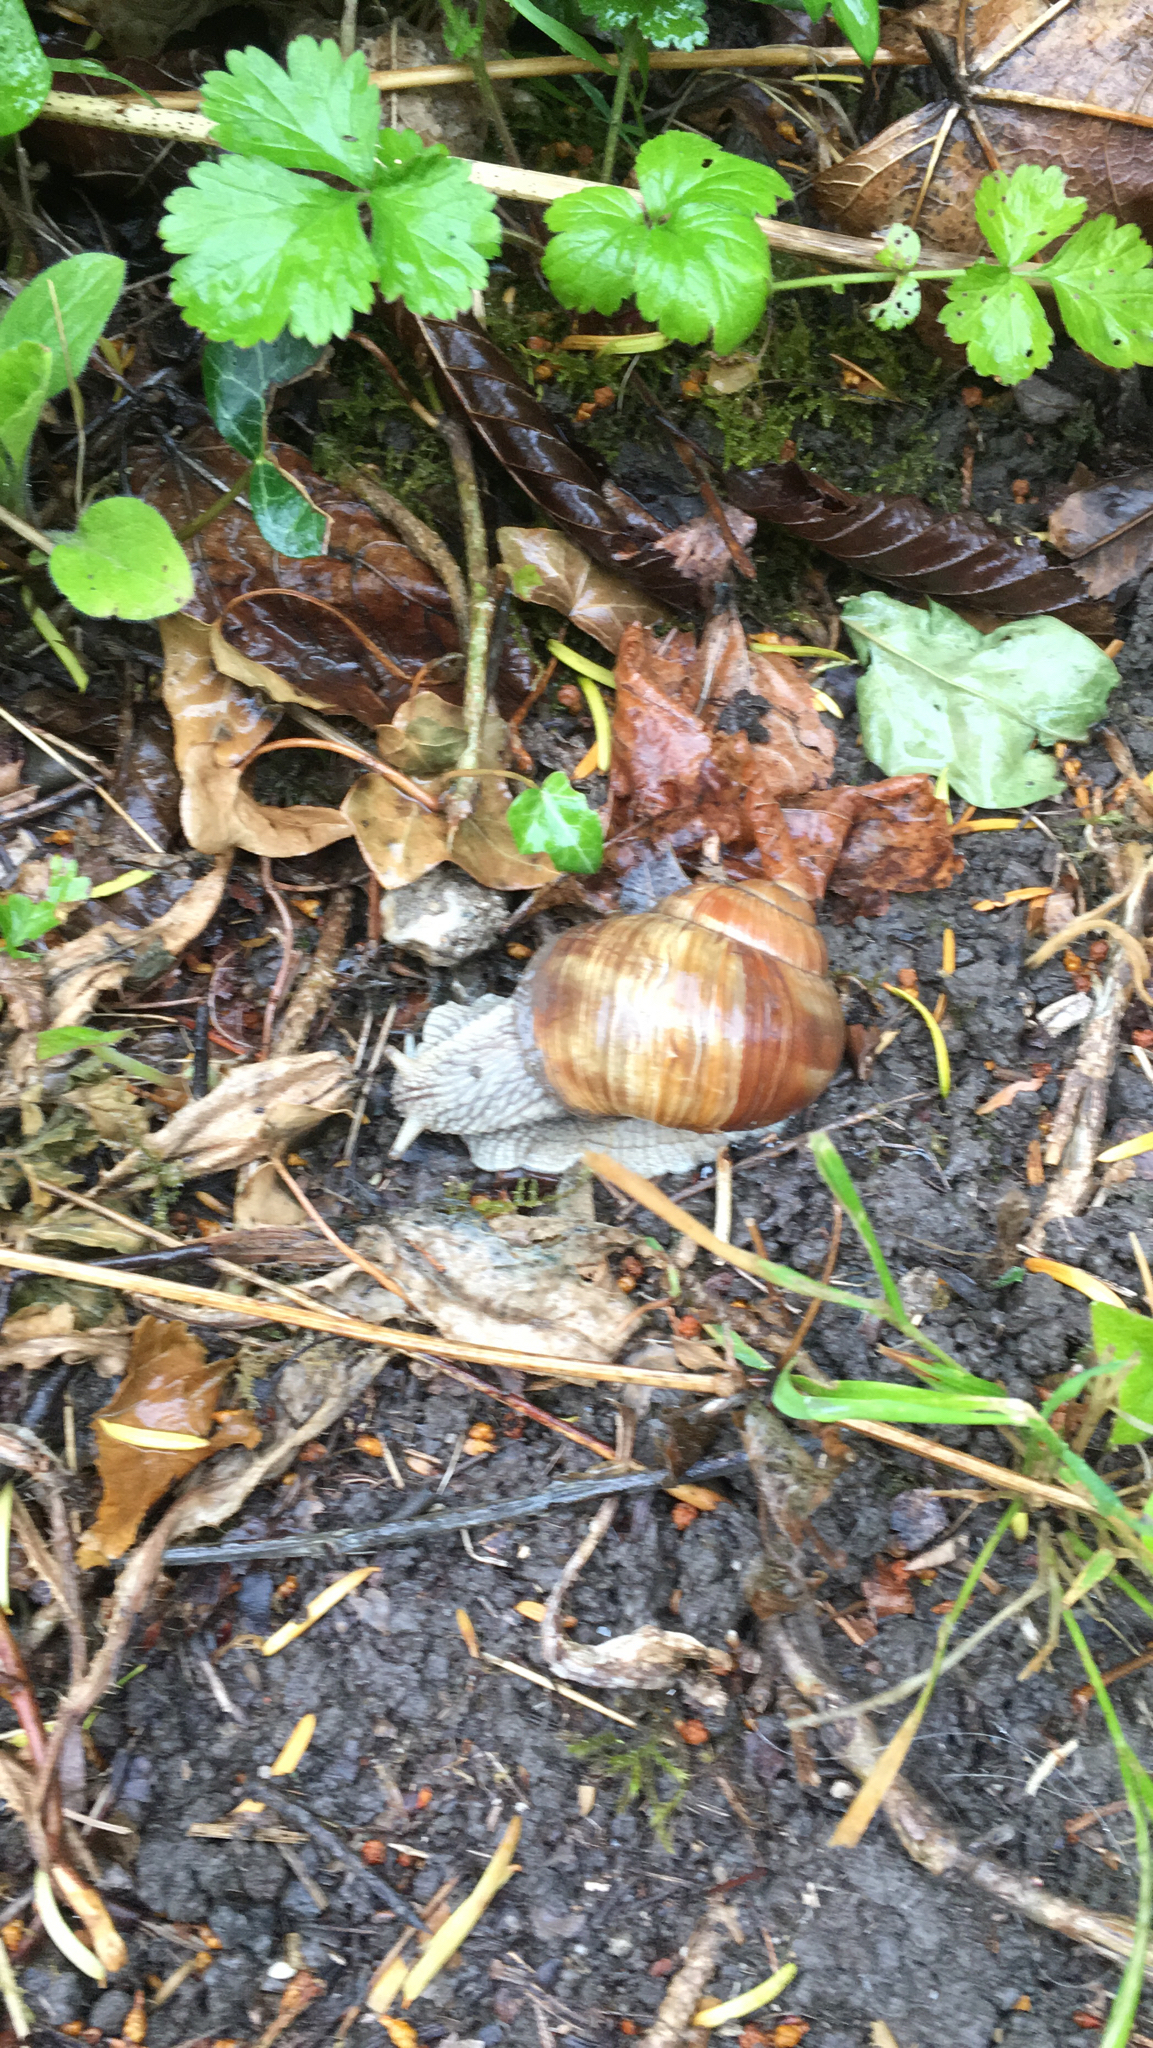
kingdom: Animalia
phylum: Mollusca
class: Gastropoda
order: Stylommatophora
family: Helicidae
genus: Helix
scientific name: Helix pomatia
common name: Roman snail
